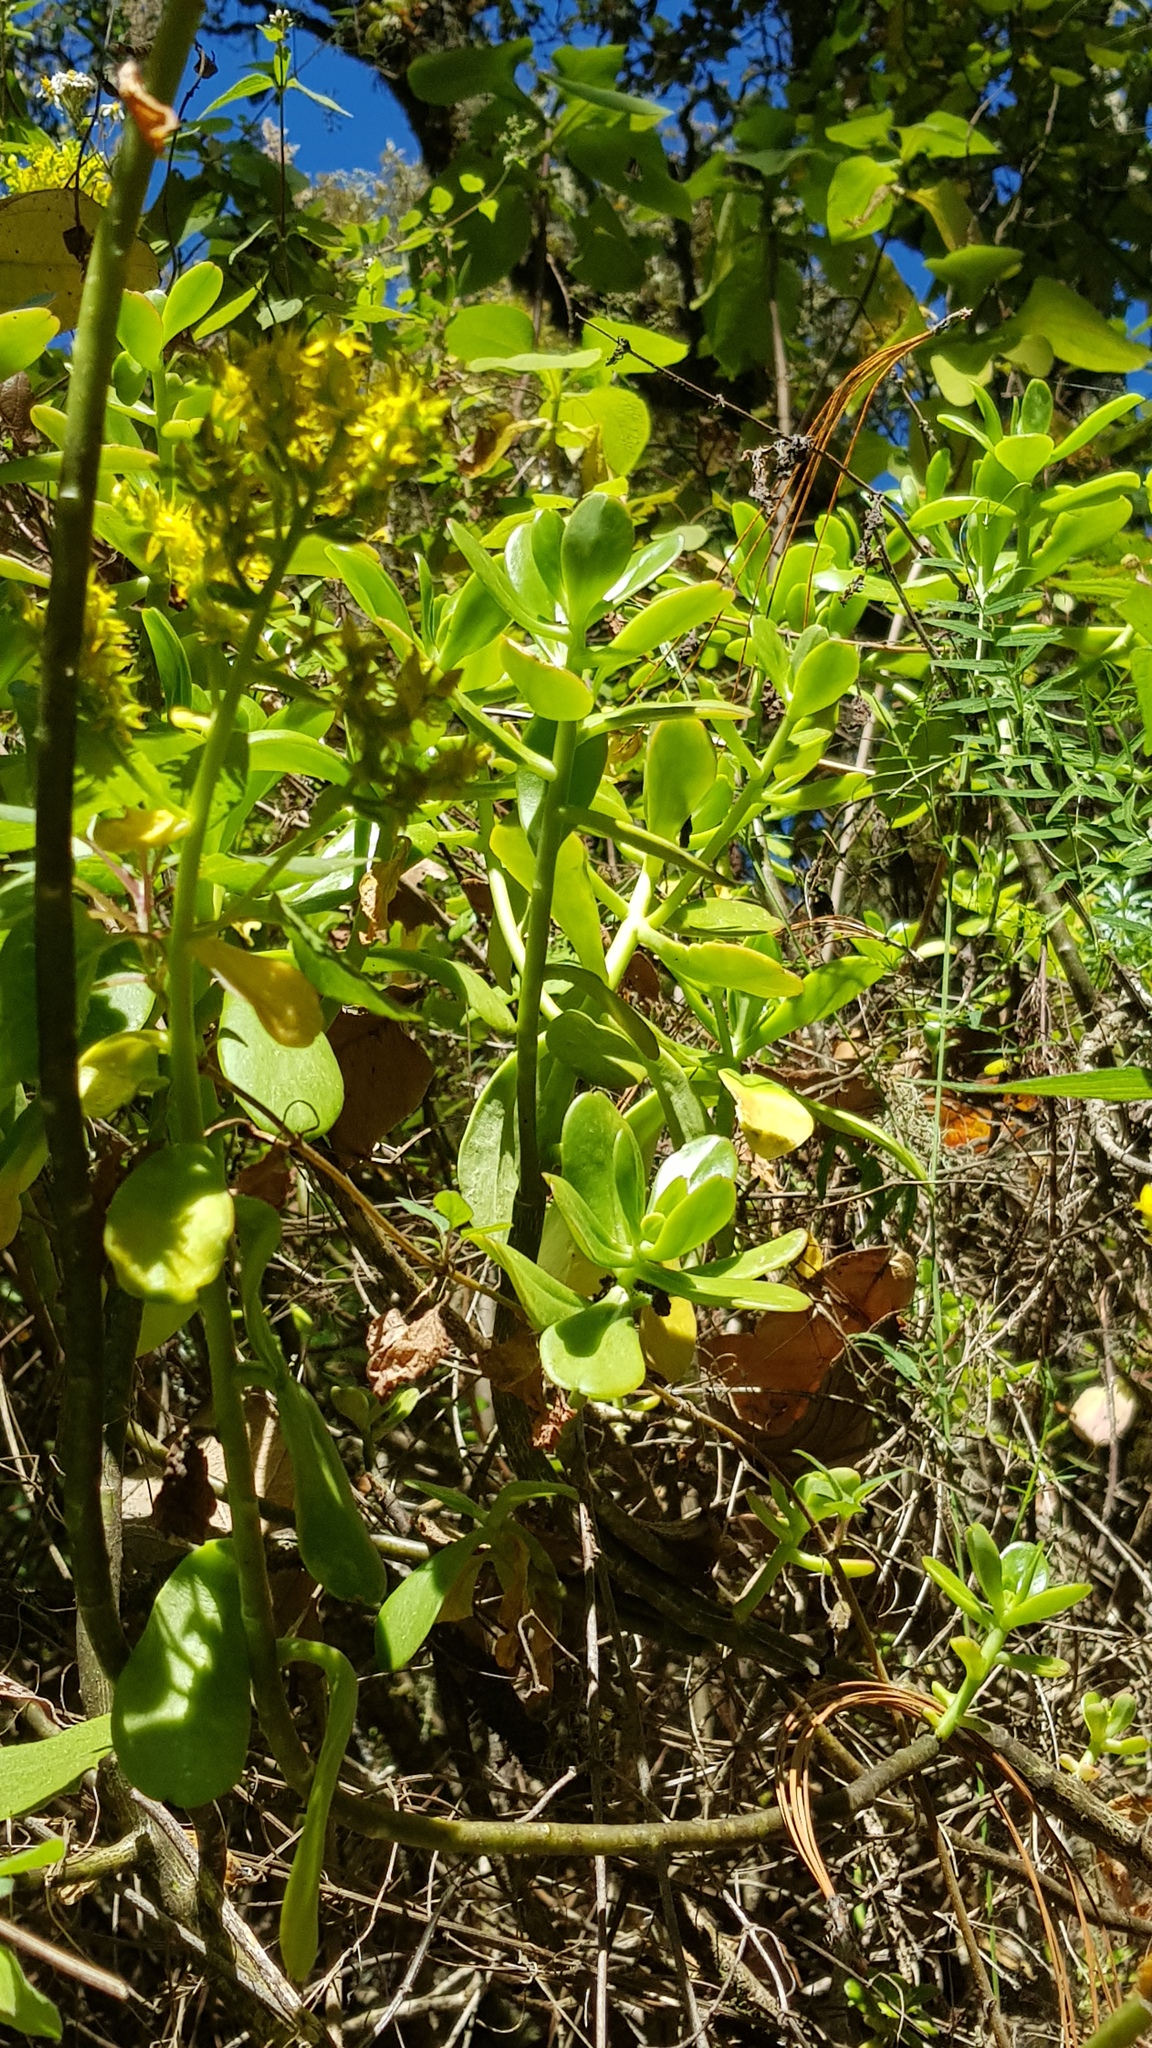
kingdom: Plantae
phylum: Tracheophyta
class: Magnoliopsida
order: Saxifragales
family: Crassulaceae
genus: Sedum
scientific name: Sedum dendroideum
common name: Tree stonecrop
